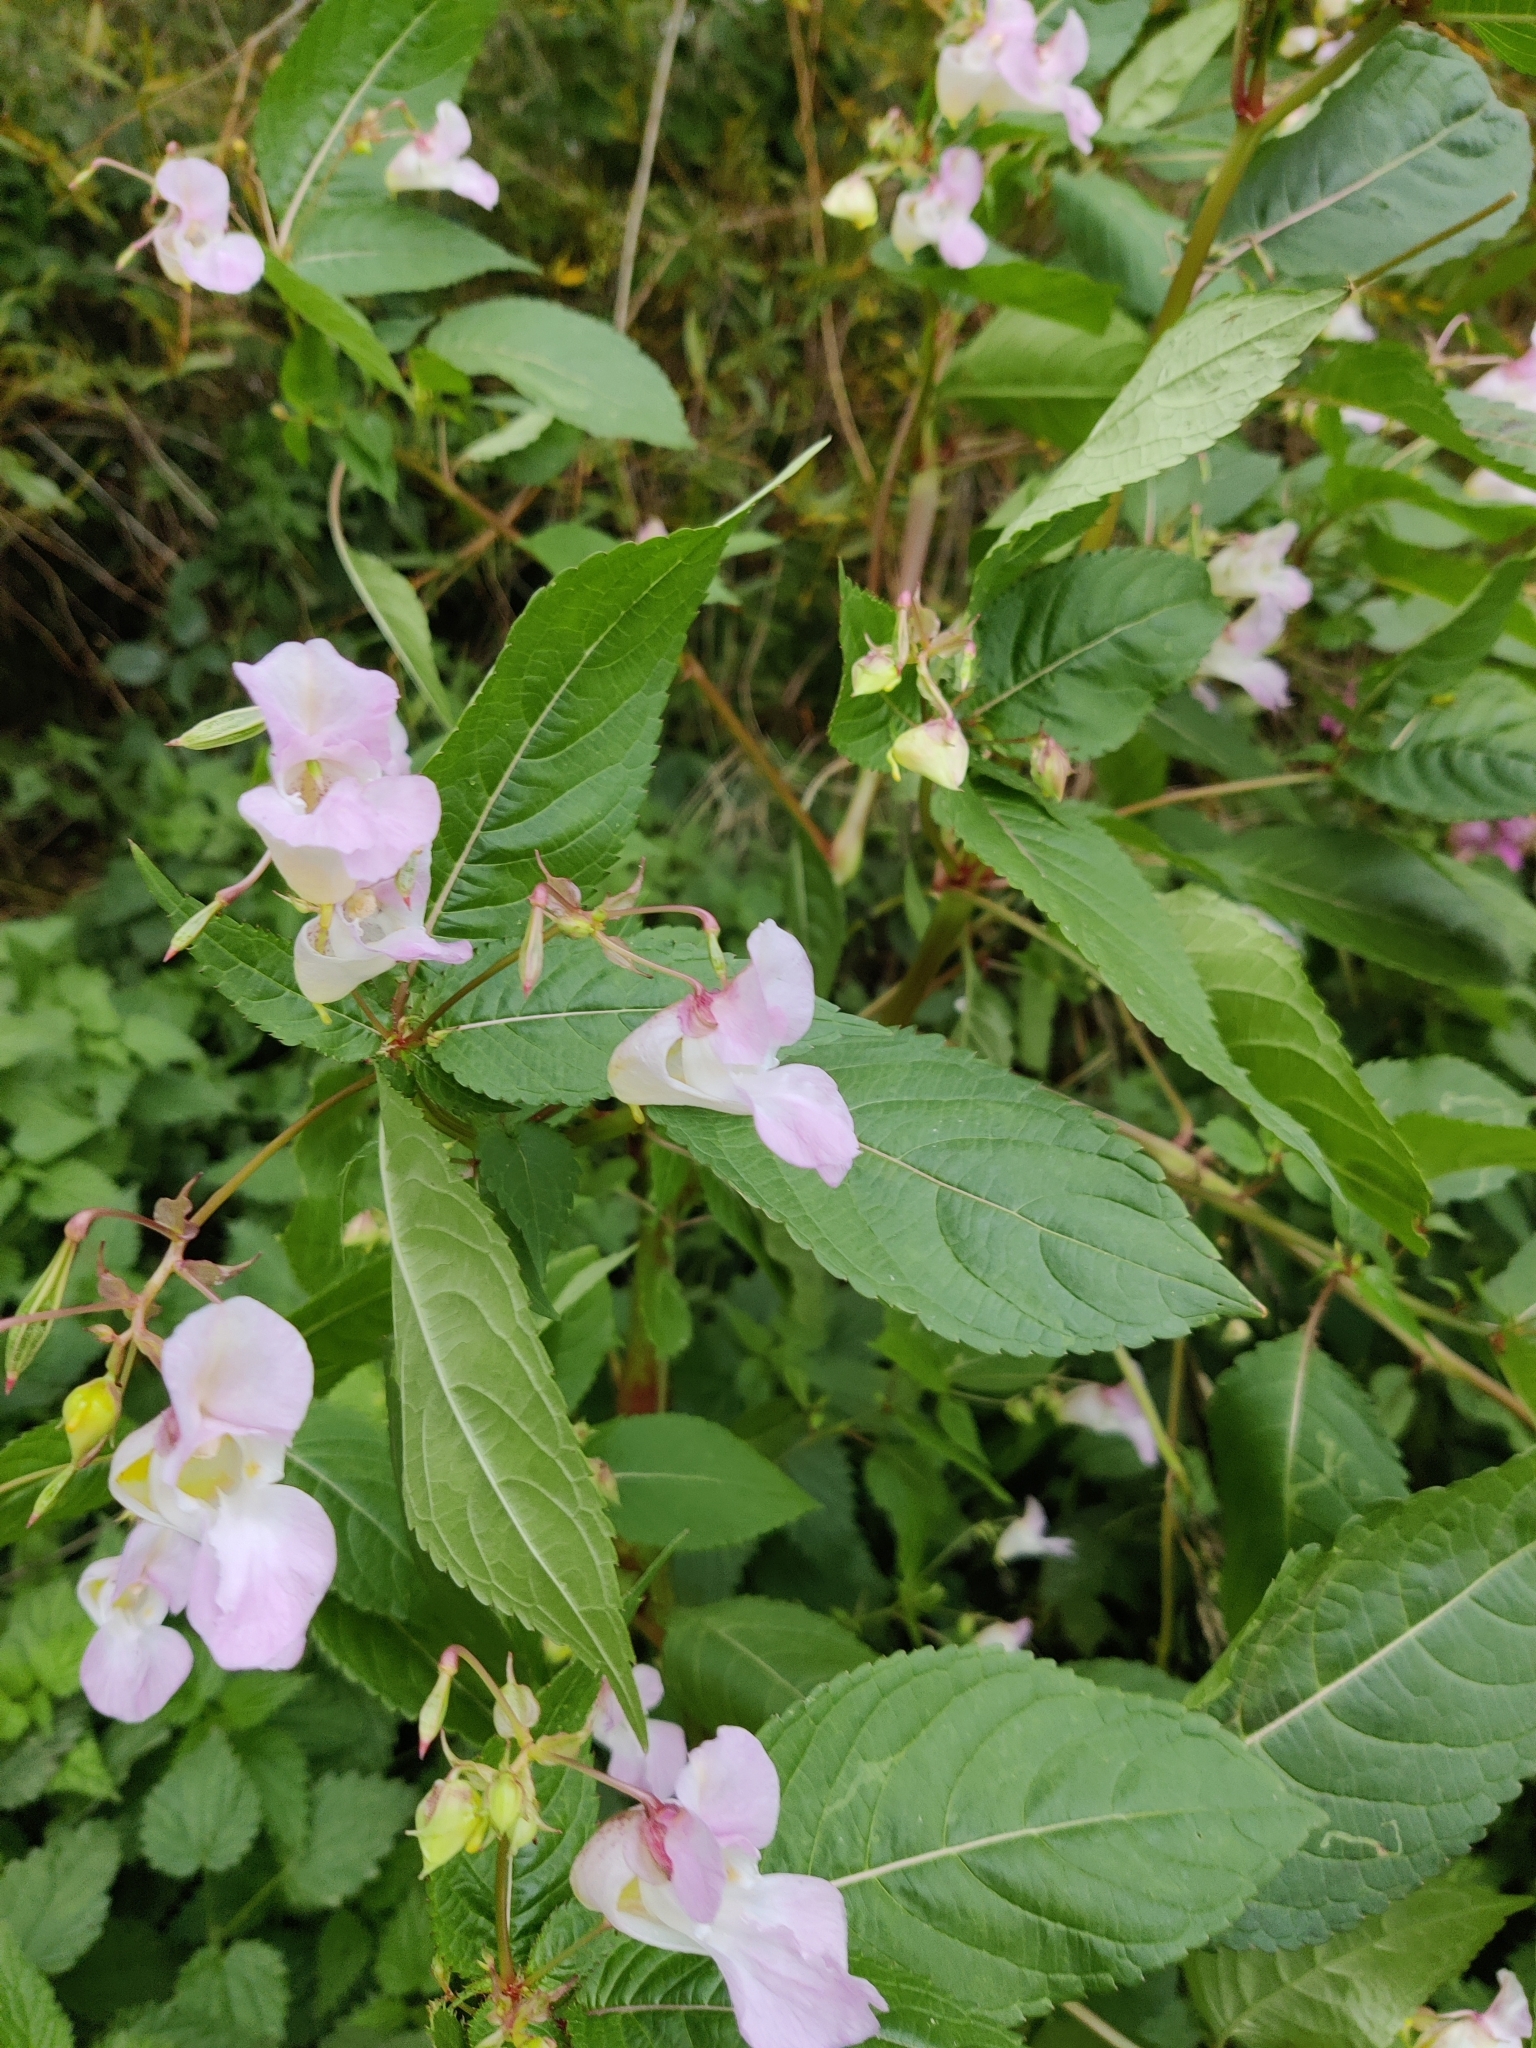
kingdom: Plantae
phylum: Tracheophyta
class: Magnoliopsida
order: Ericales
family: Balsaminaceae
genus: Impatiens
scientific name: Impatiens glandulifera
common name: Himalayan balsam
